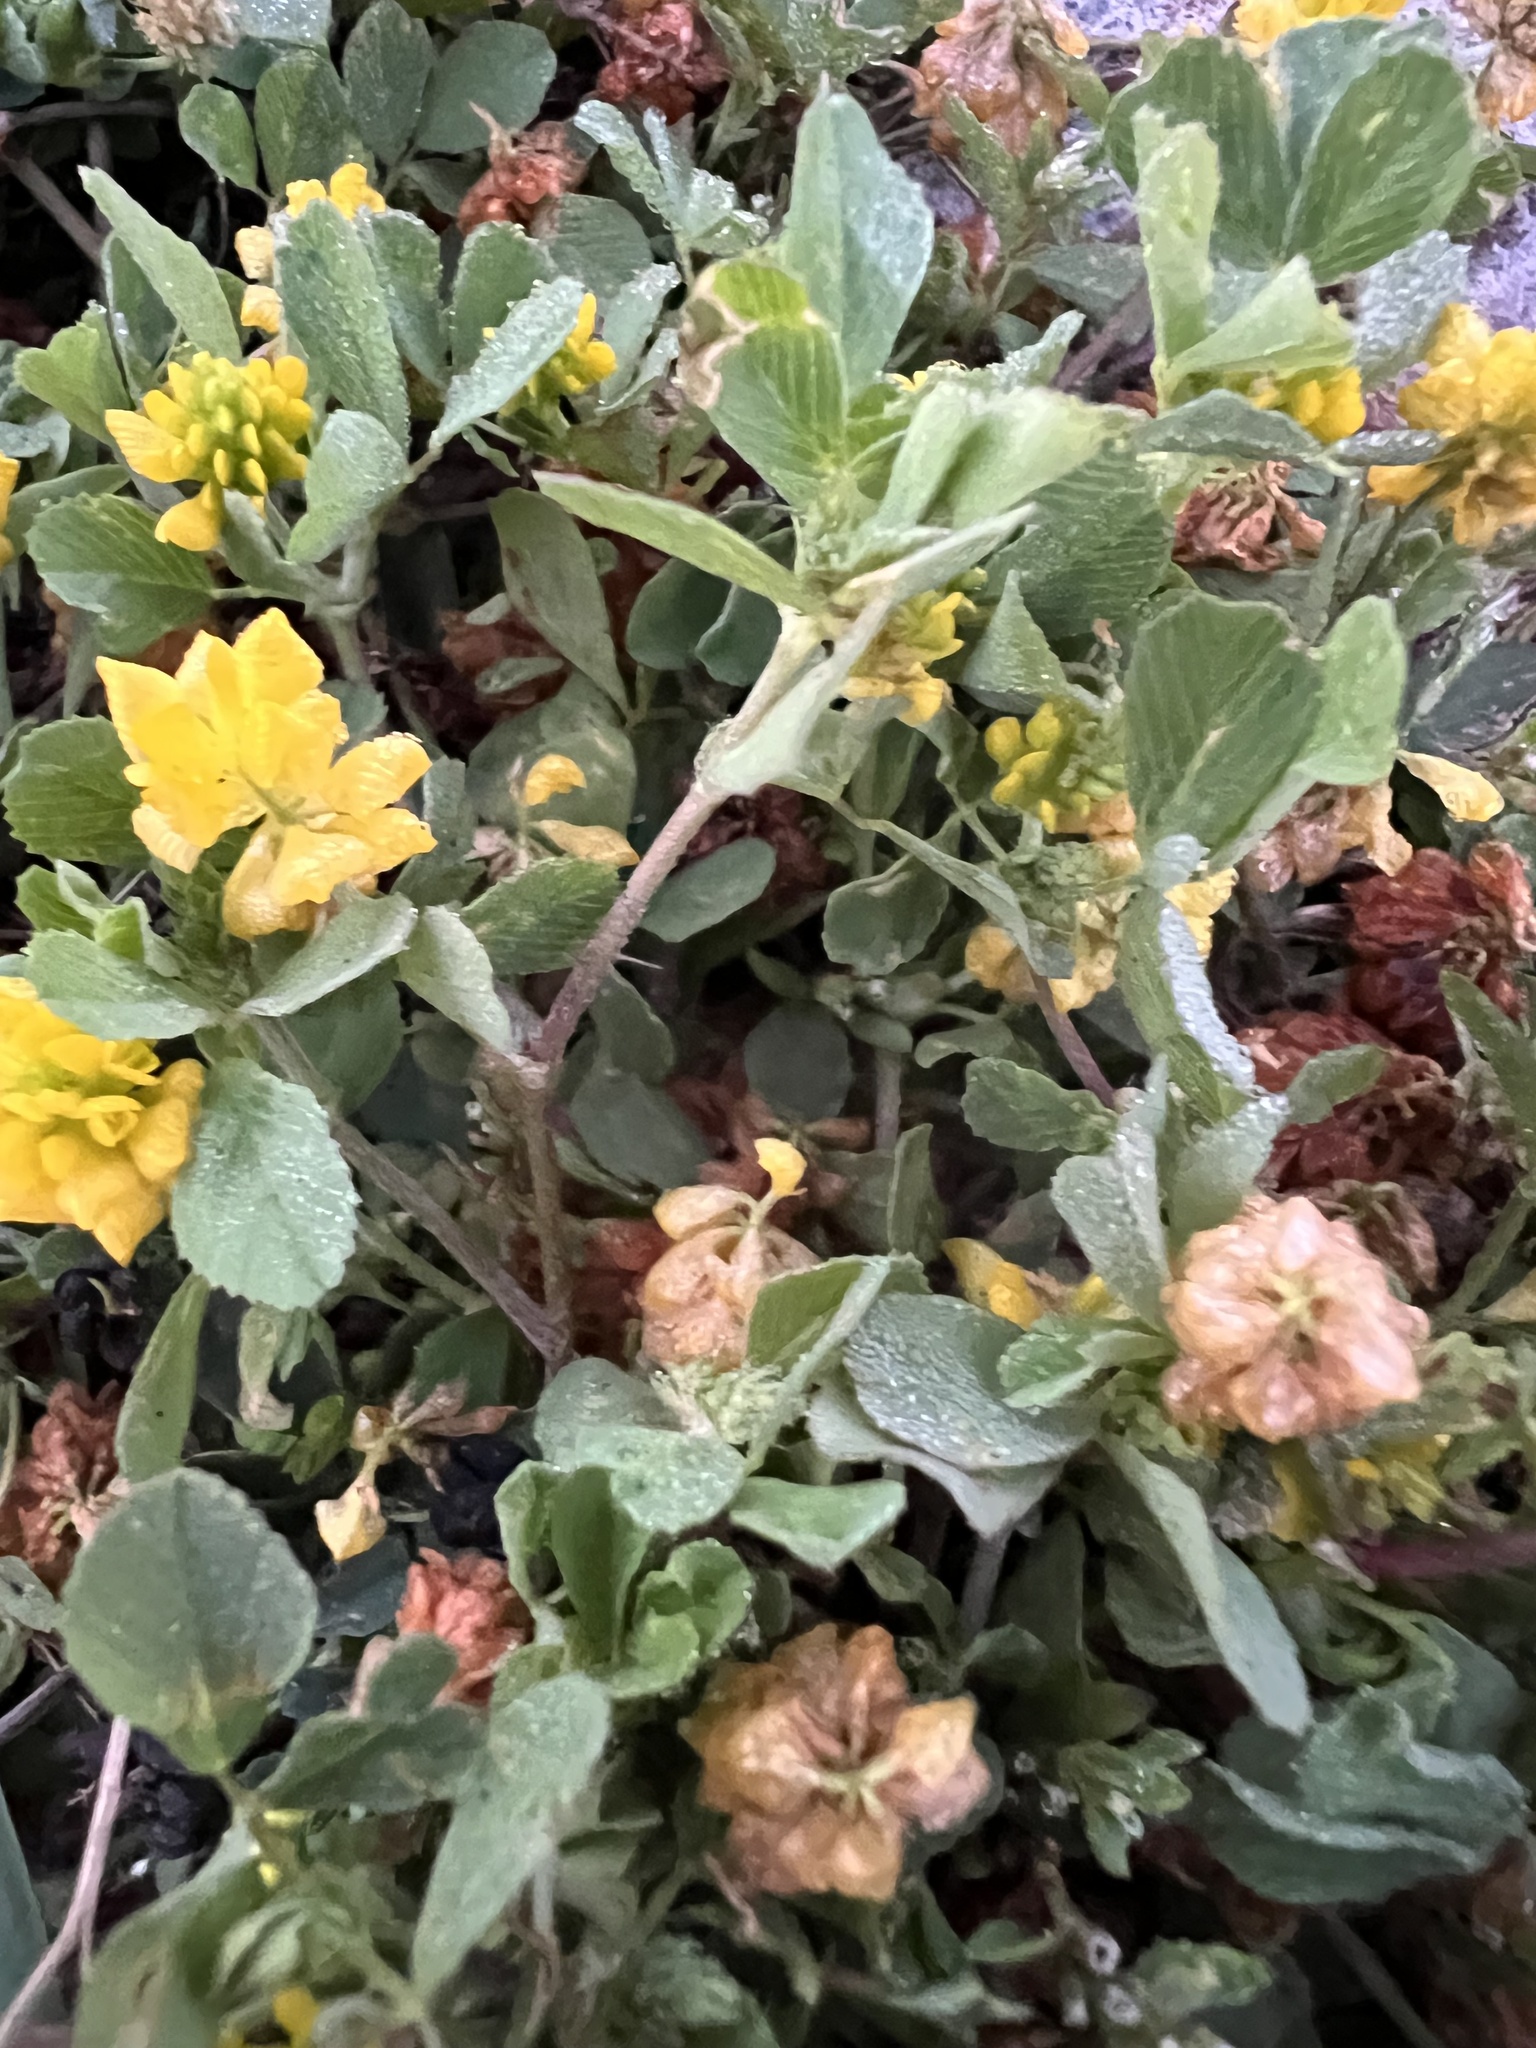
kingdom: Plantae
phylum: Tracheophyta
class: Magnoliopsida
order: Fabales
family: Fabaceae
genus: Trifolium
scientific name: Trifolium campestre
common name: Field clover
